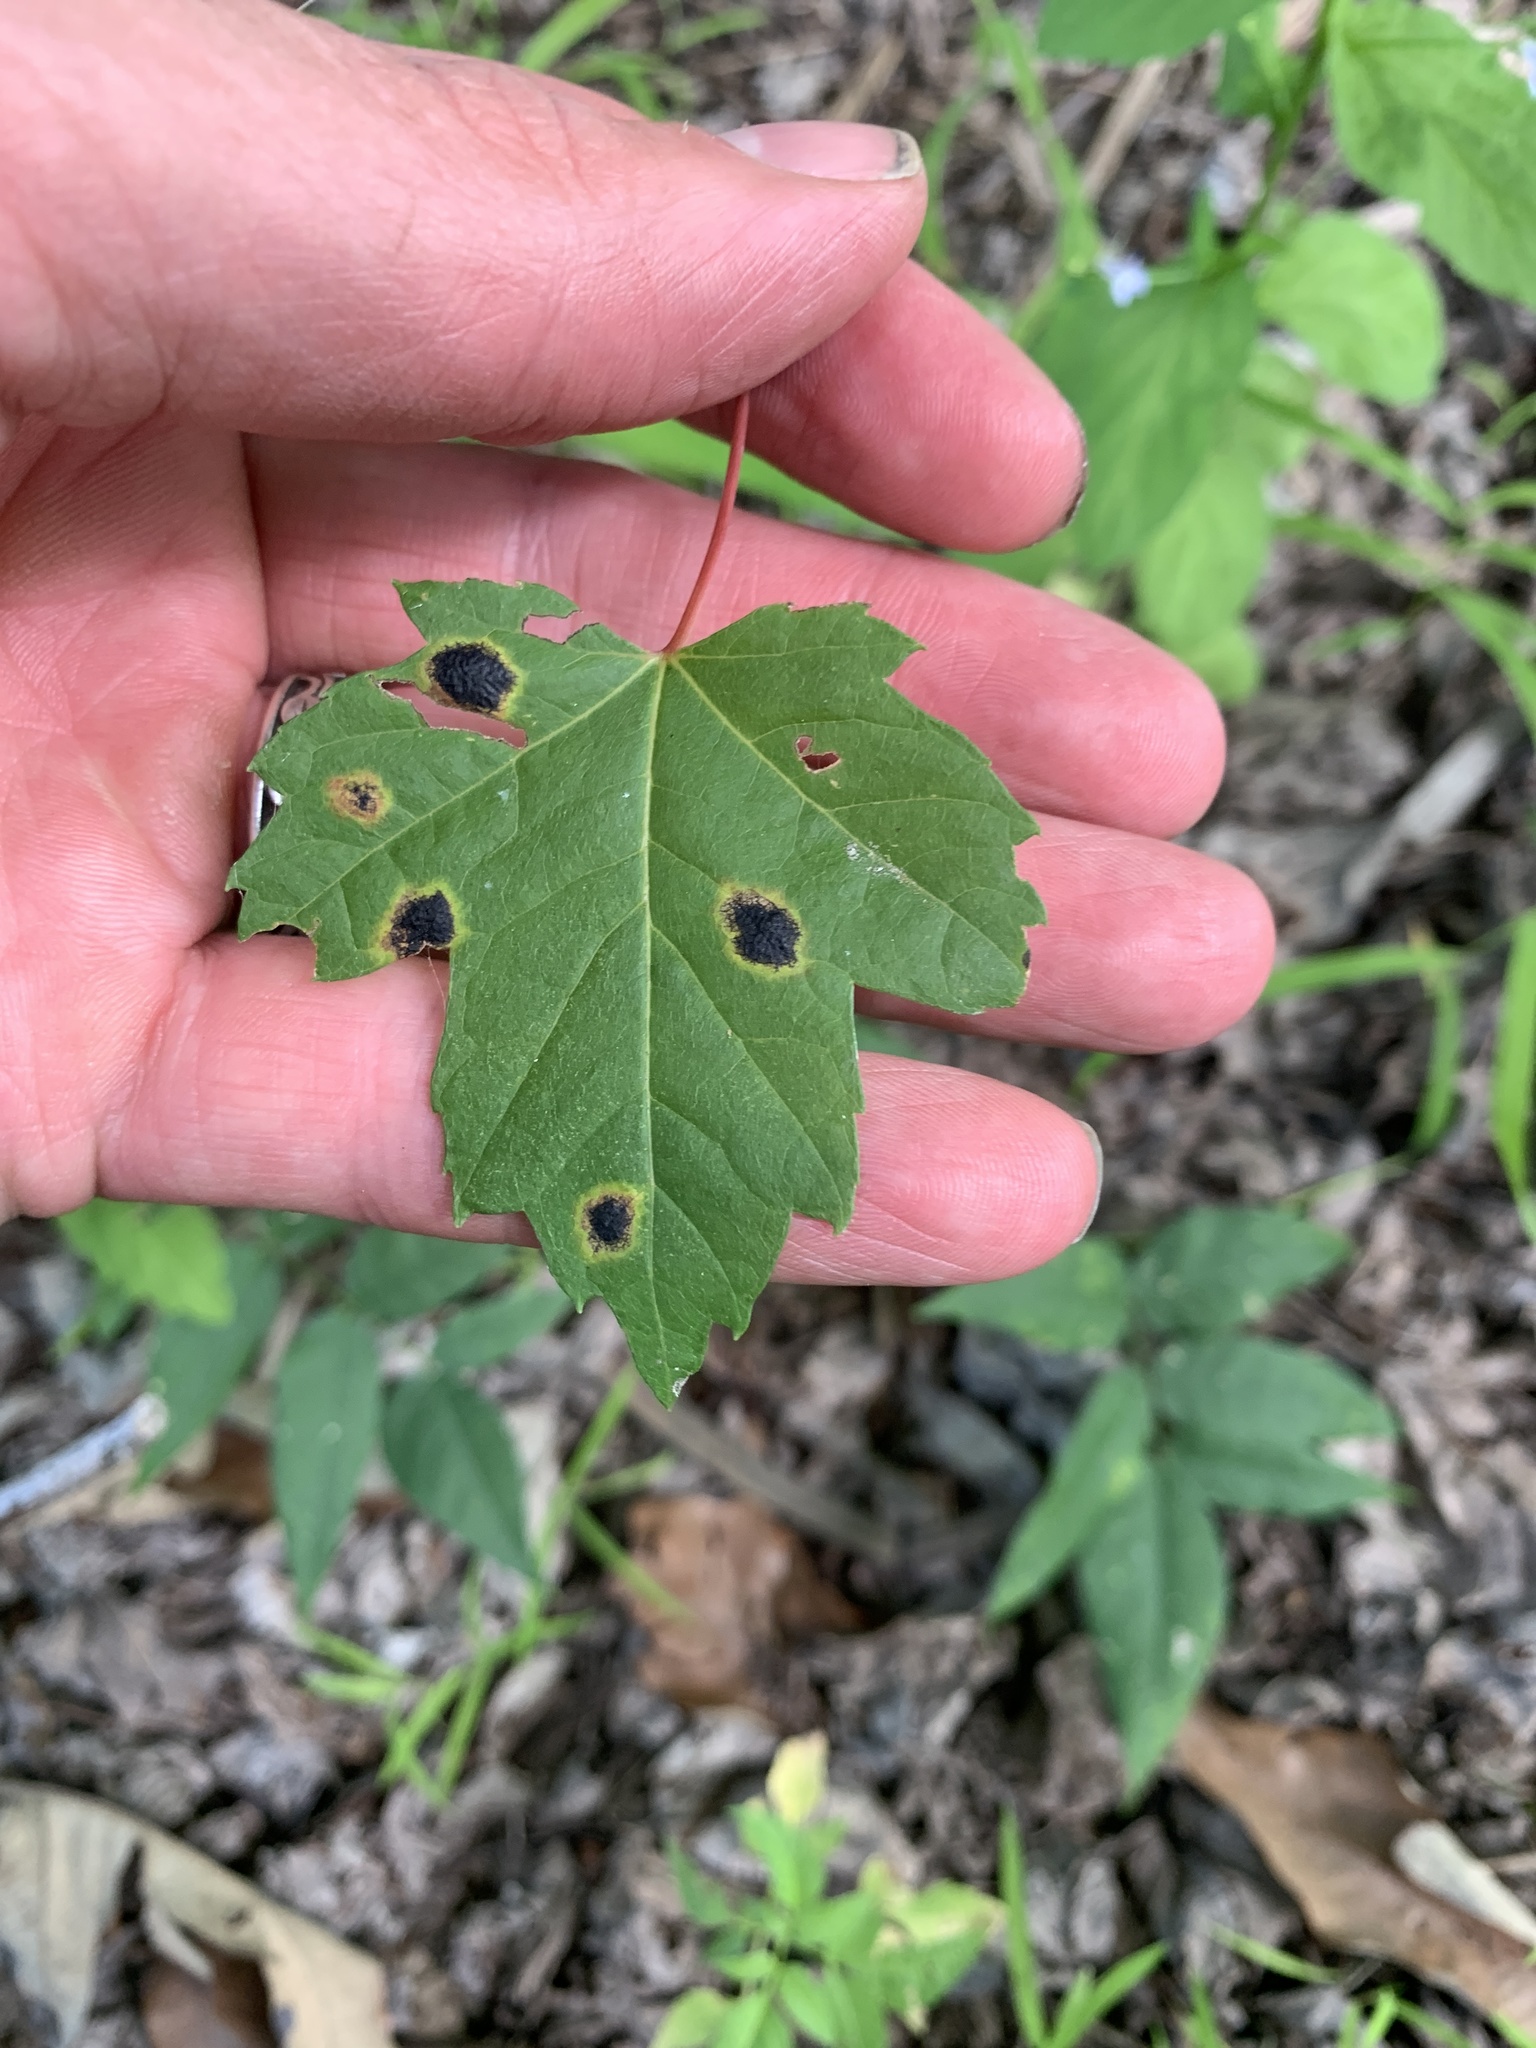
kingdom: Fungi
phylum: Ascomycota
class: Leotiomycetes
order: Rhytismatales
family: Rhytismataceae
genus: Rhytisma
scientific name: Rhytisma americanum
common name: American tar spot
